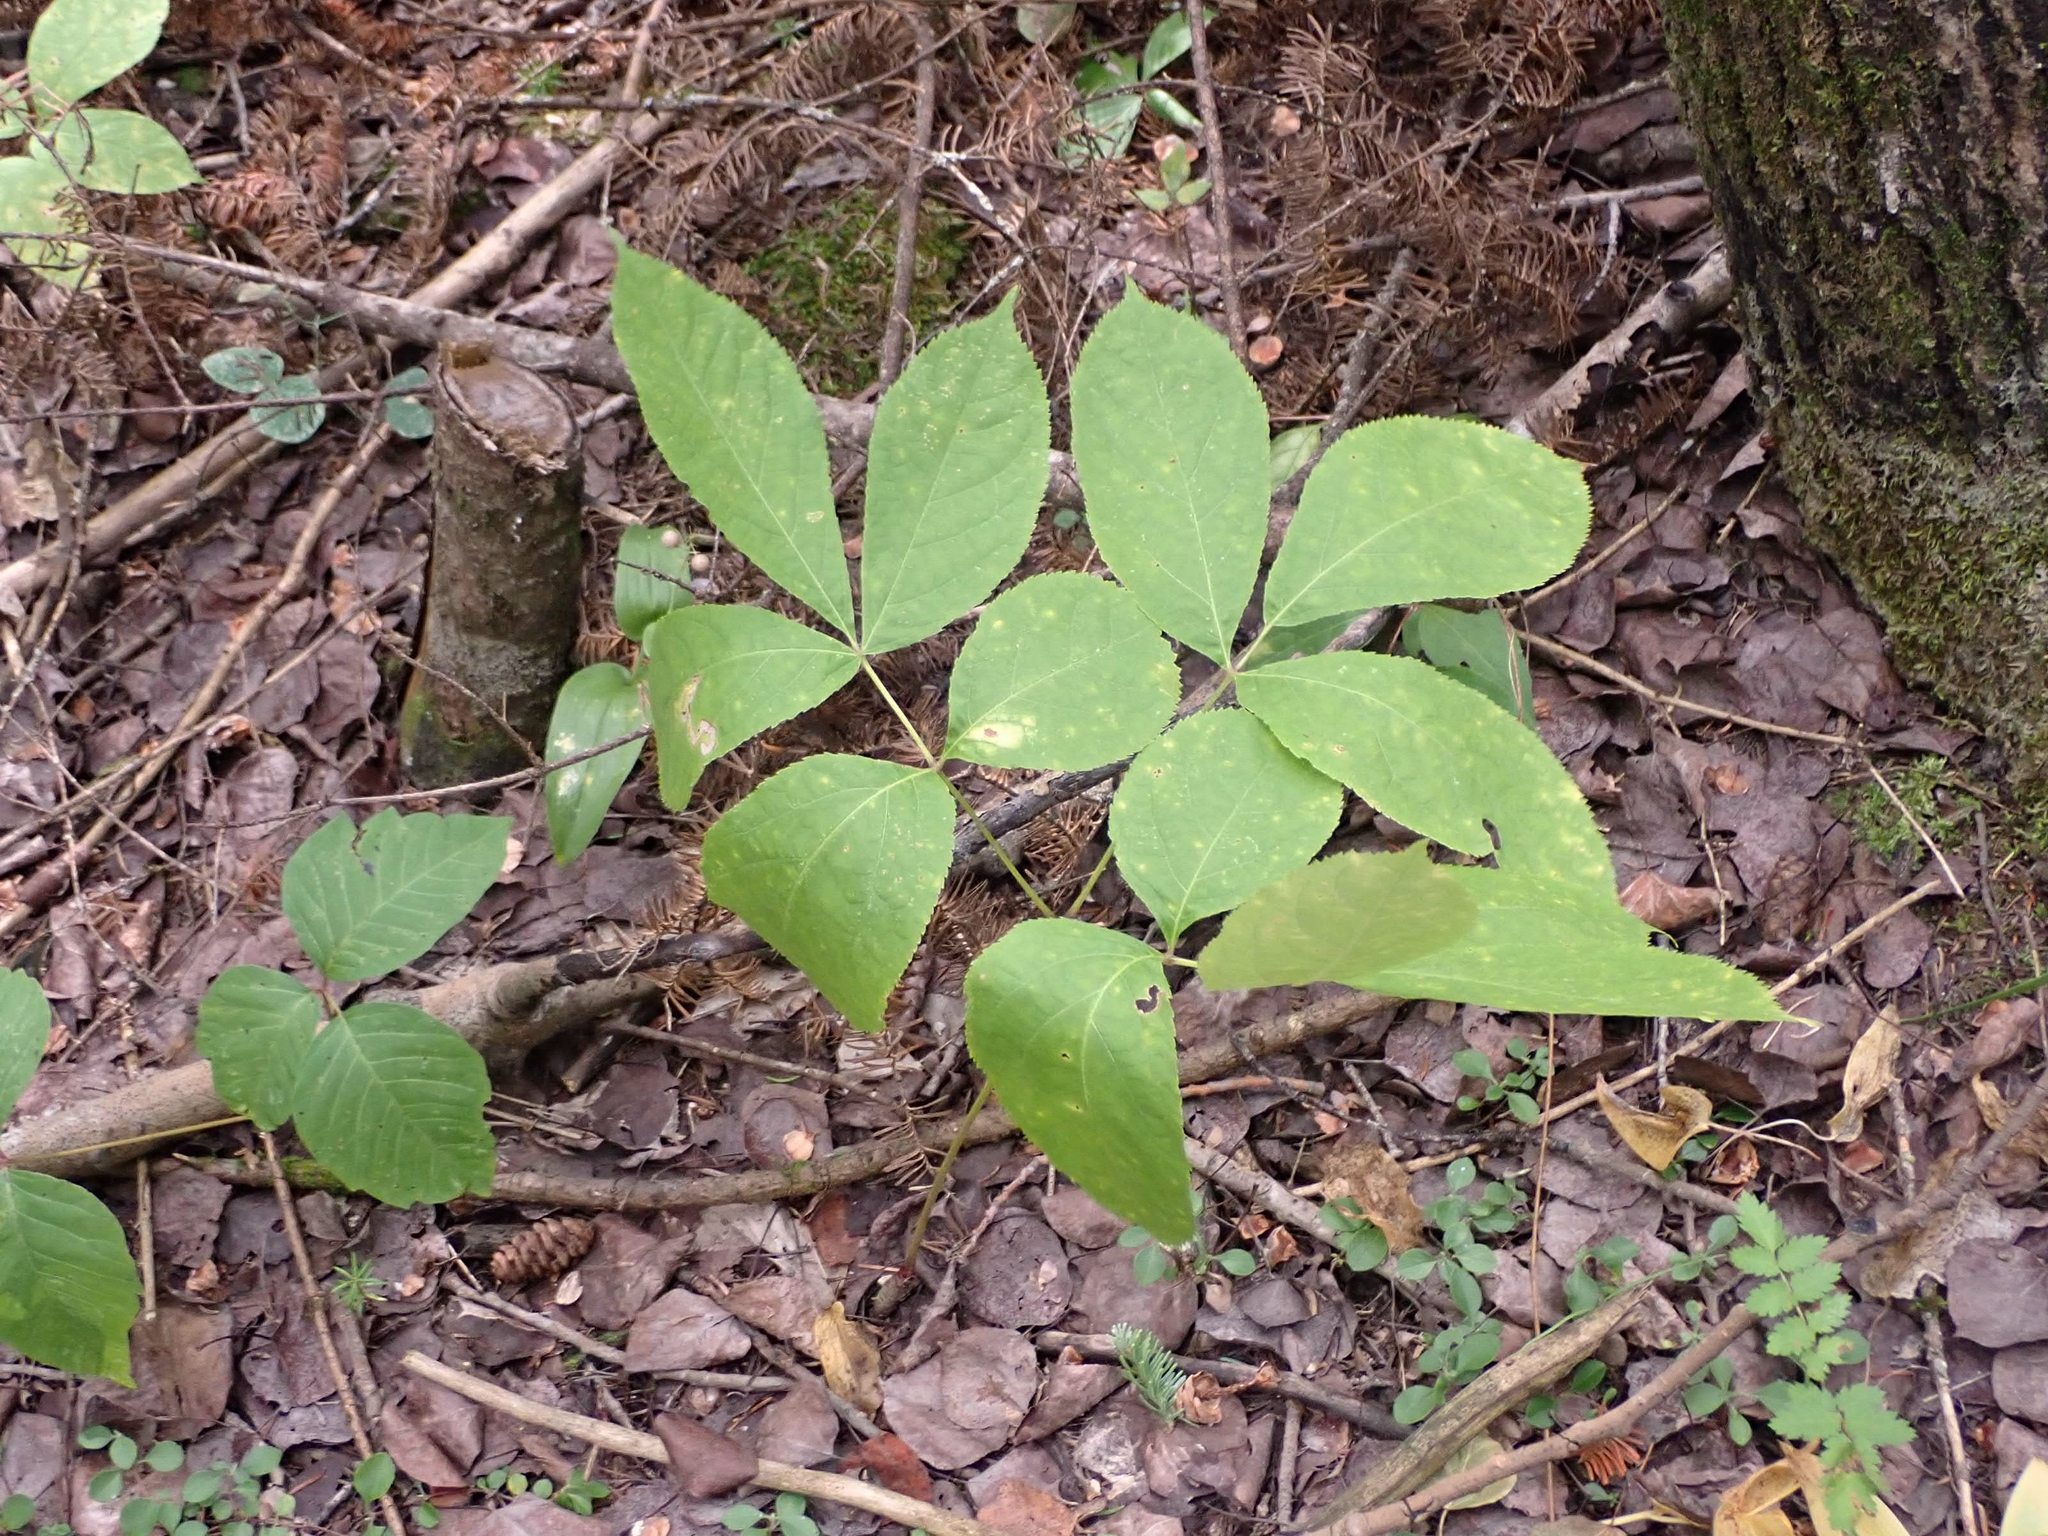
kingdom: Plantae
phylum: Tracheophyta
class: Magnoliopsida
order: Apiales
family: Araliaceae
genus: Aralia
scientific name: Aralia nudicaulis
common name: Wild sarsaparilla
